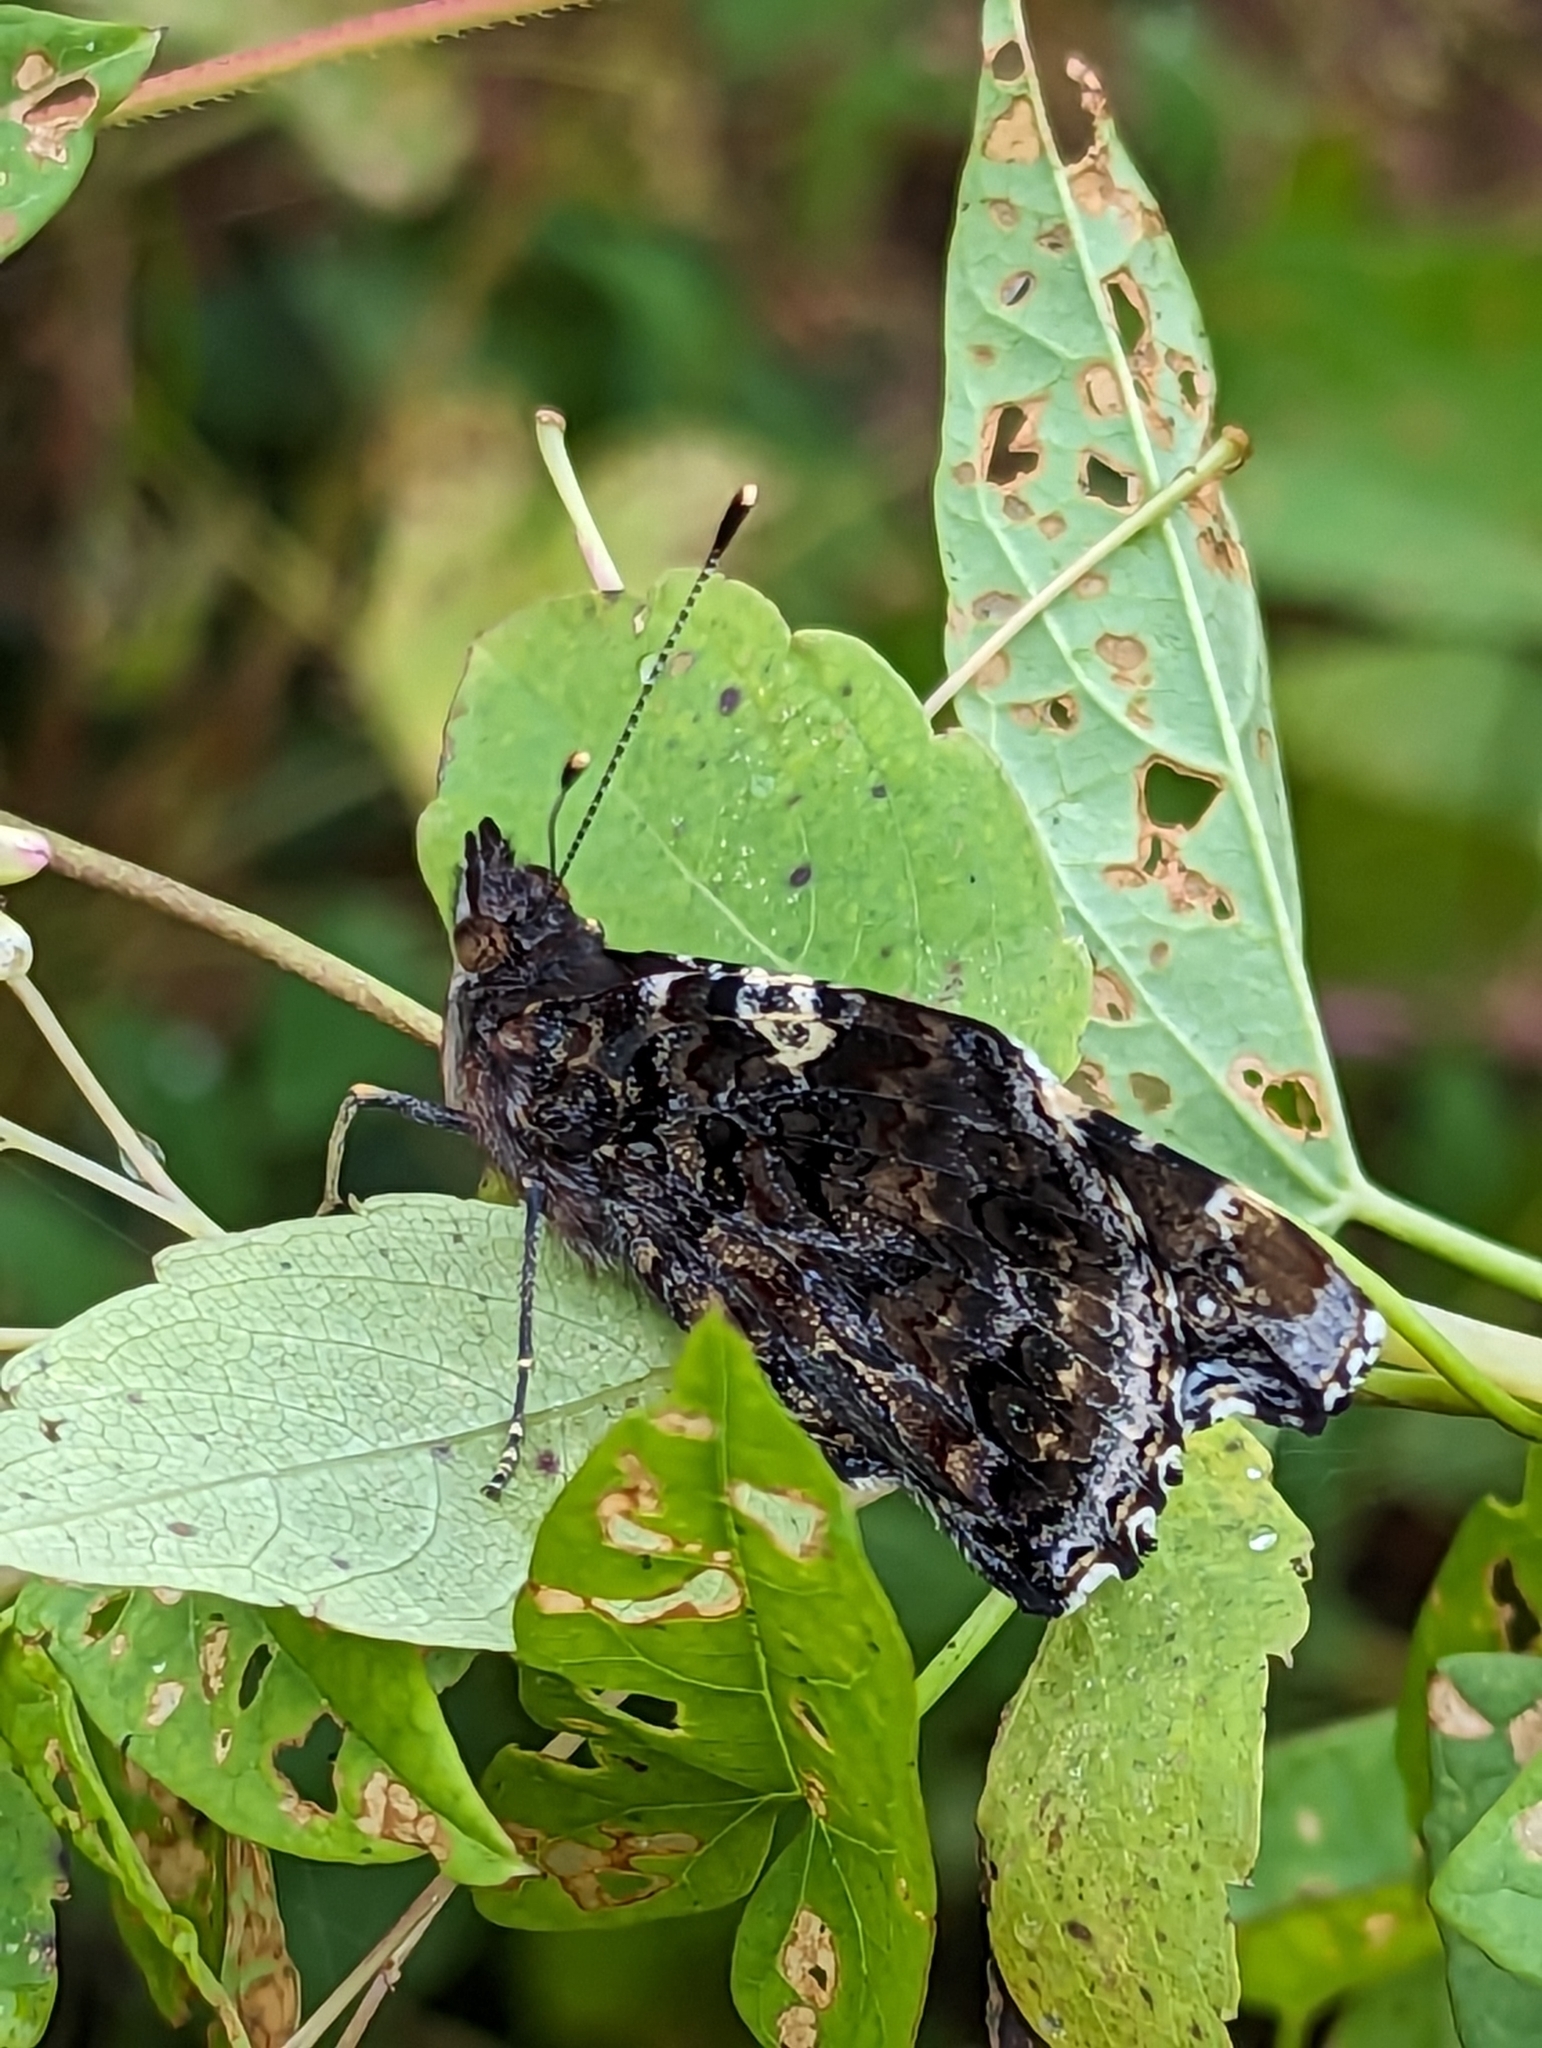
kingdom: Animalia
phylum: Arthropoda
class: Insecta
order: Lepidoptera
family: Nymphalidae
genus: Vanessa
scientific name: Vanessa atalanta
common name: Red admiral
